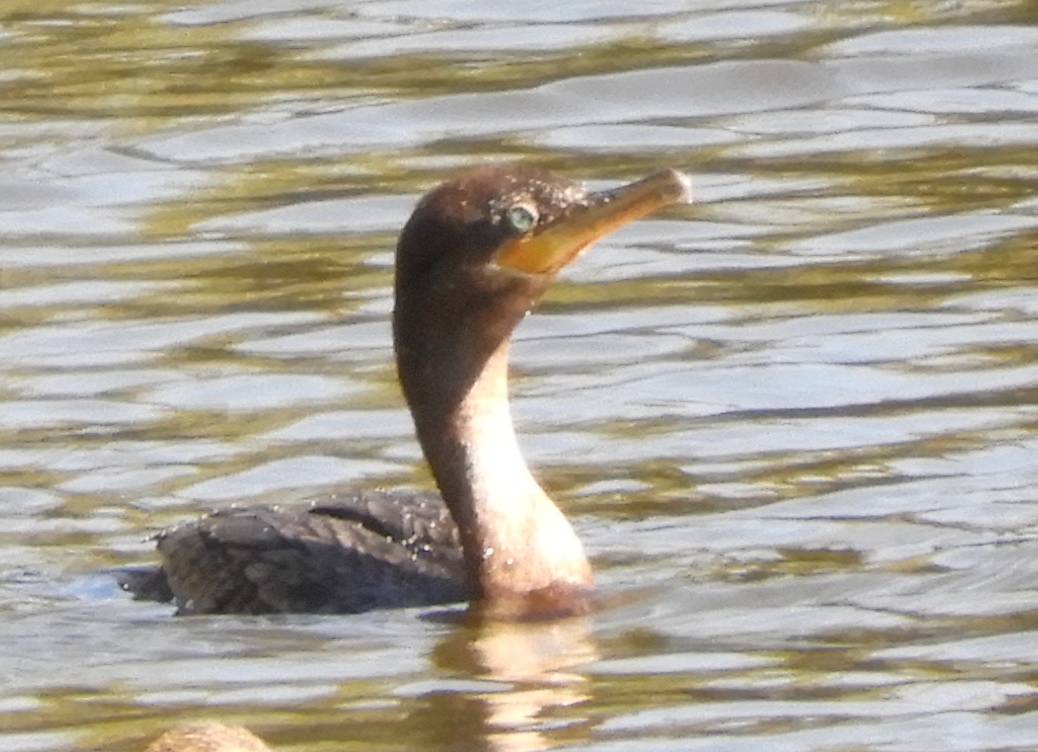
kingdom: Animalia
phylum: Chordata
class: Aves
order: Suliformes
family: Phalacrocoracidae
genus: Phalacrocorax
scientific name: Phalacrocorax brasilianus
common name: Neotropic cormorant
